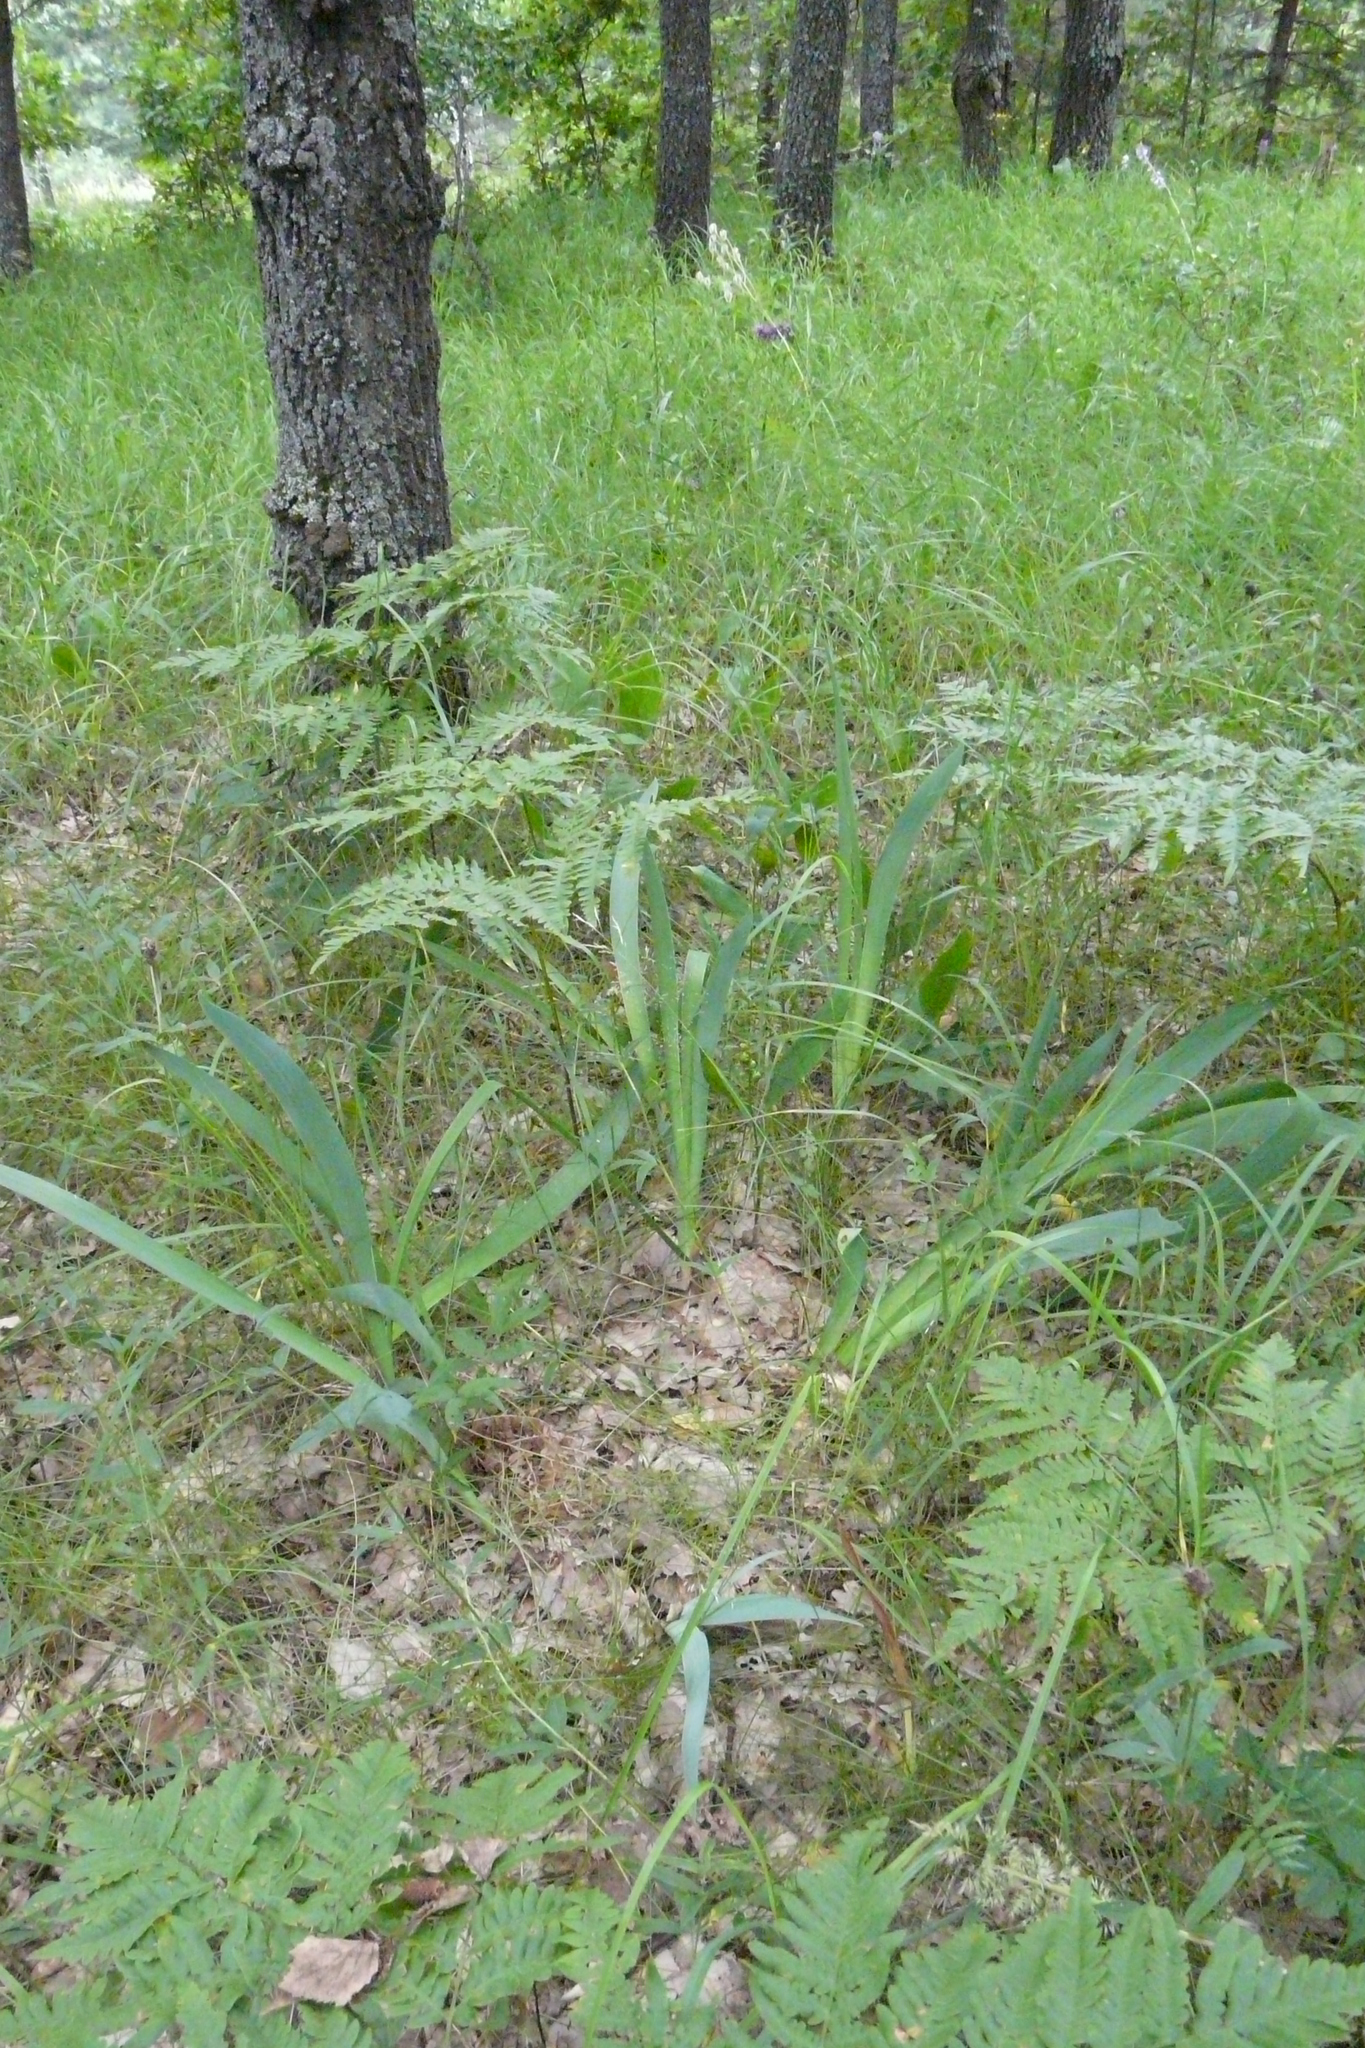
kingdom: Plantae
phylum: Tracheophyta
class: Liliopsida
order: Asparagales
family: Iridaceae
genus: Iris
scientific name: Iris aphylla
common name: Stool iris
